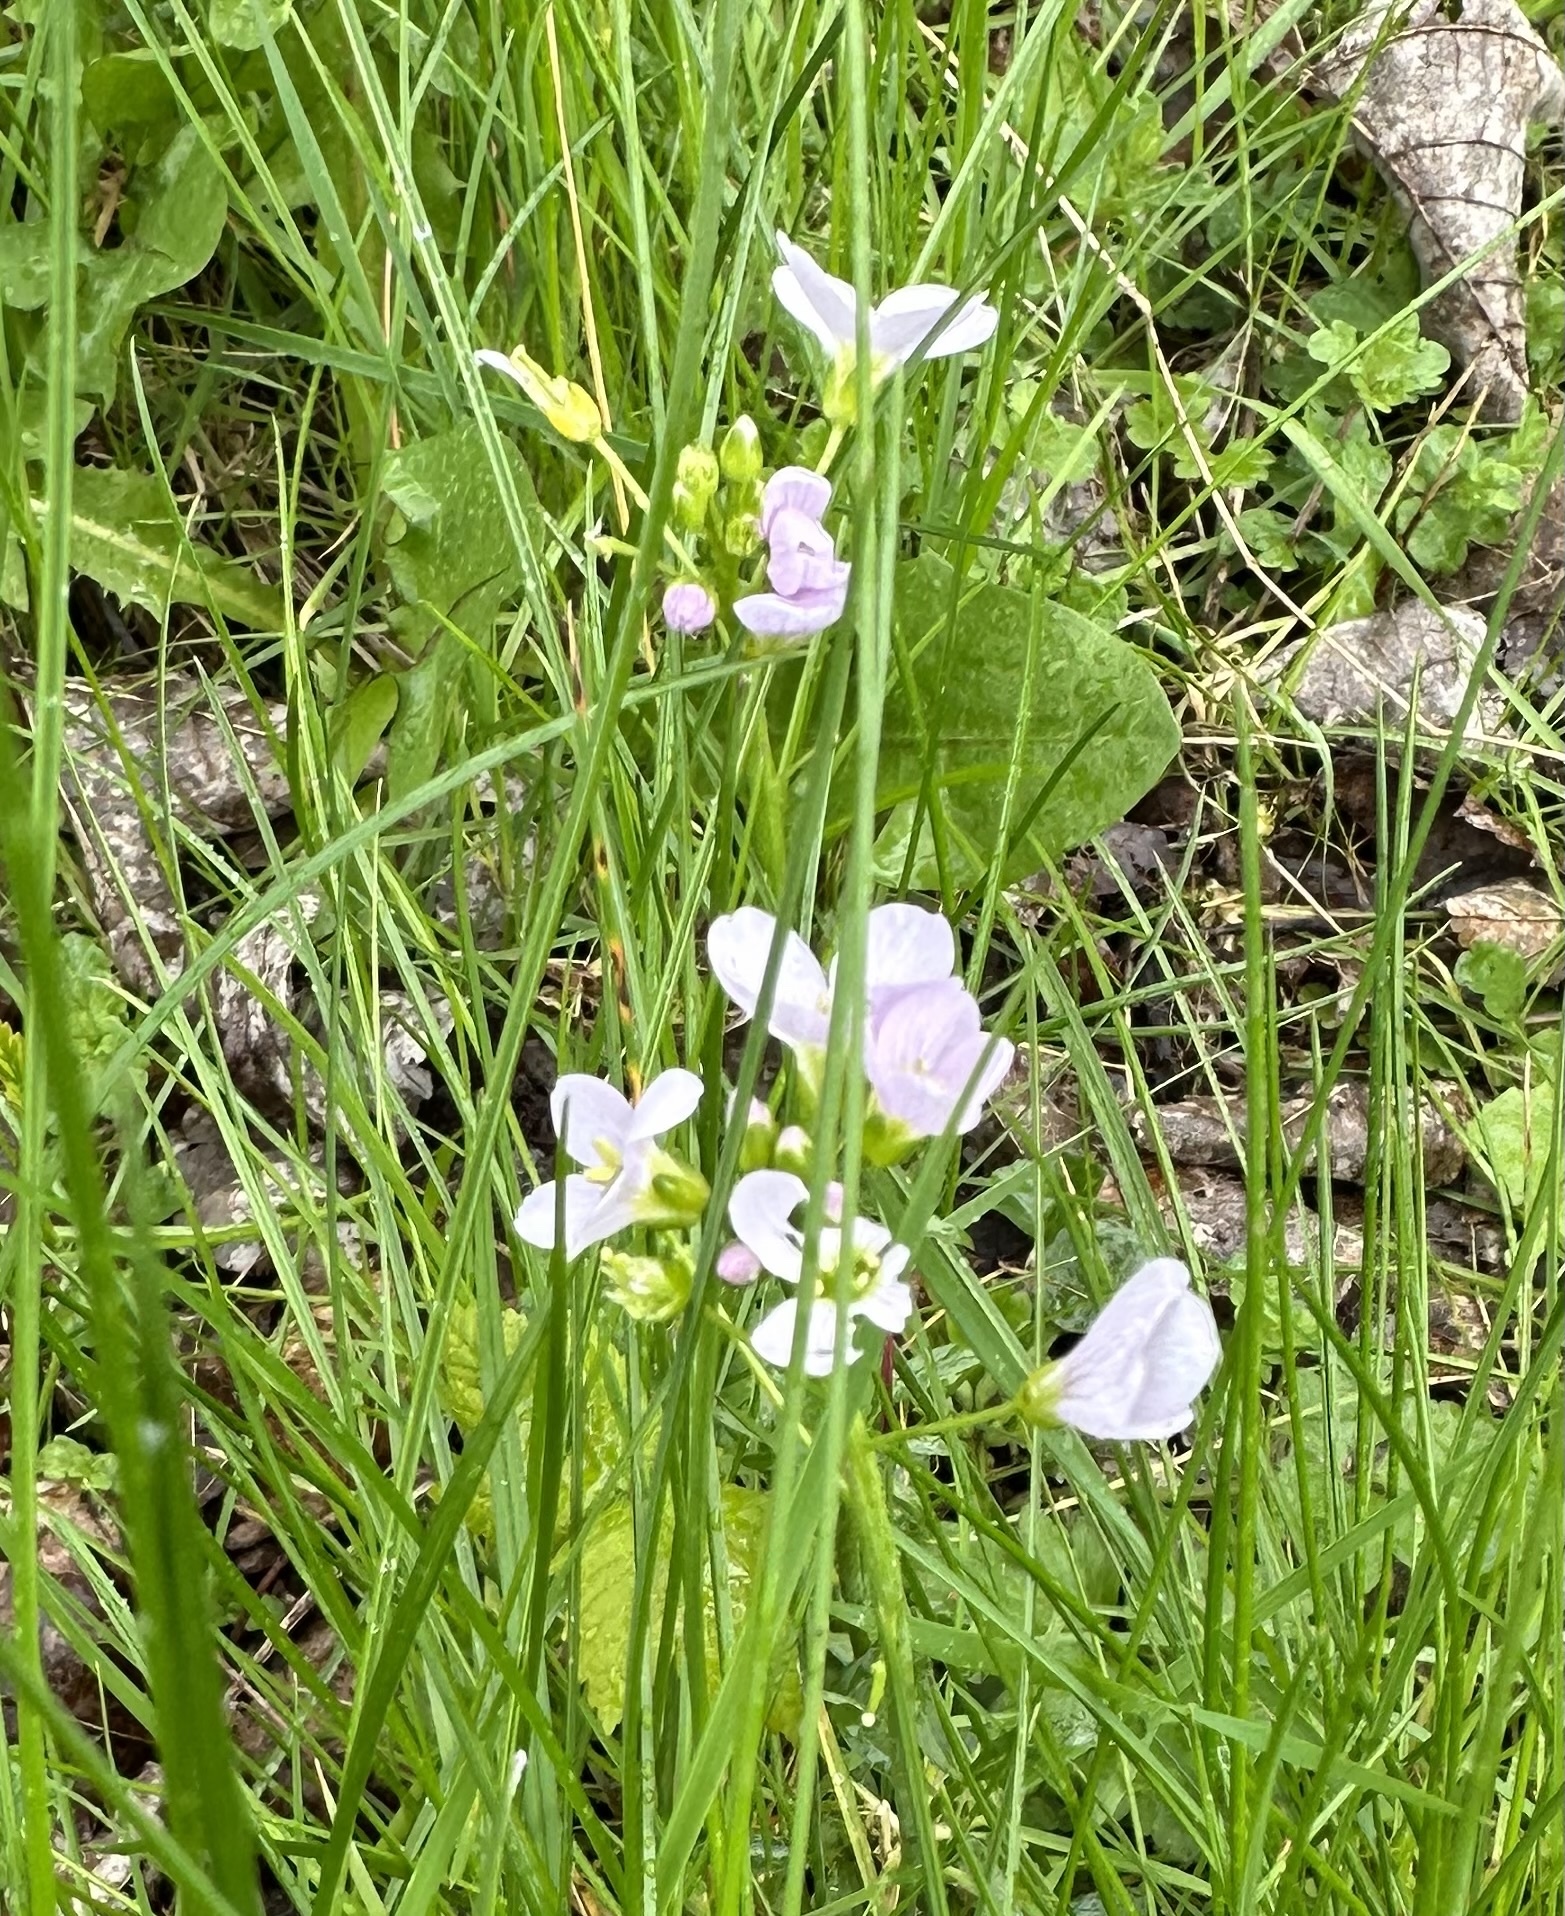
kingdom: Plantae
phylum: Tracheophyta
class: Magnoliopsida
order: Brassicales
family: Brassicaceae
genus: Cardamine
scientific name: Cardamine pratensis
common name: Cuckoo flower
